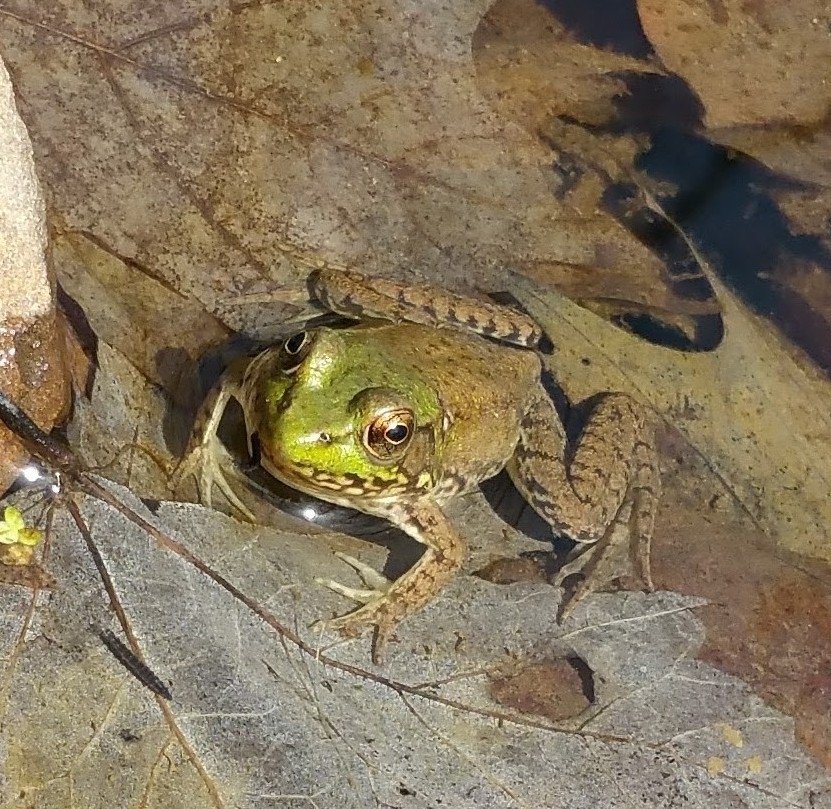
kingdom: Animalia
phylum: Chordata
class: Amphibia
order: Anura
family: Ranidae
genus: Lithobates
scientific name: Lithobates clamitans
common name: Green frog
